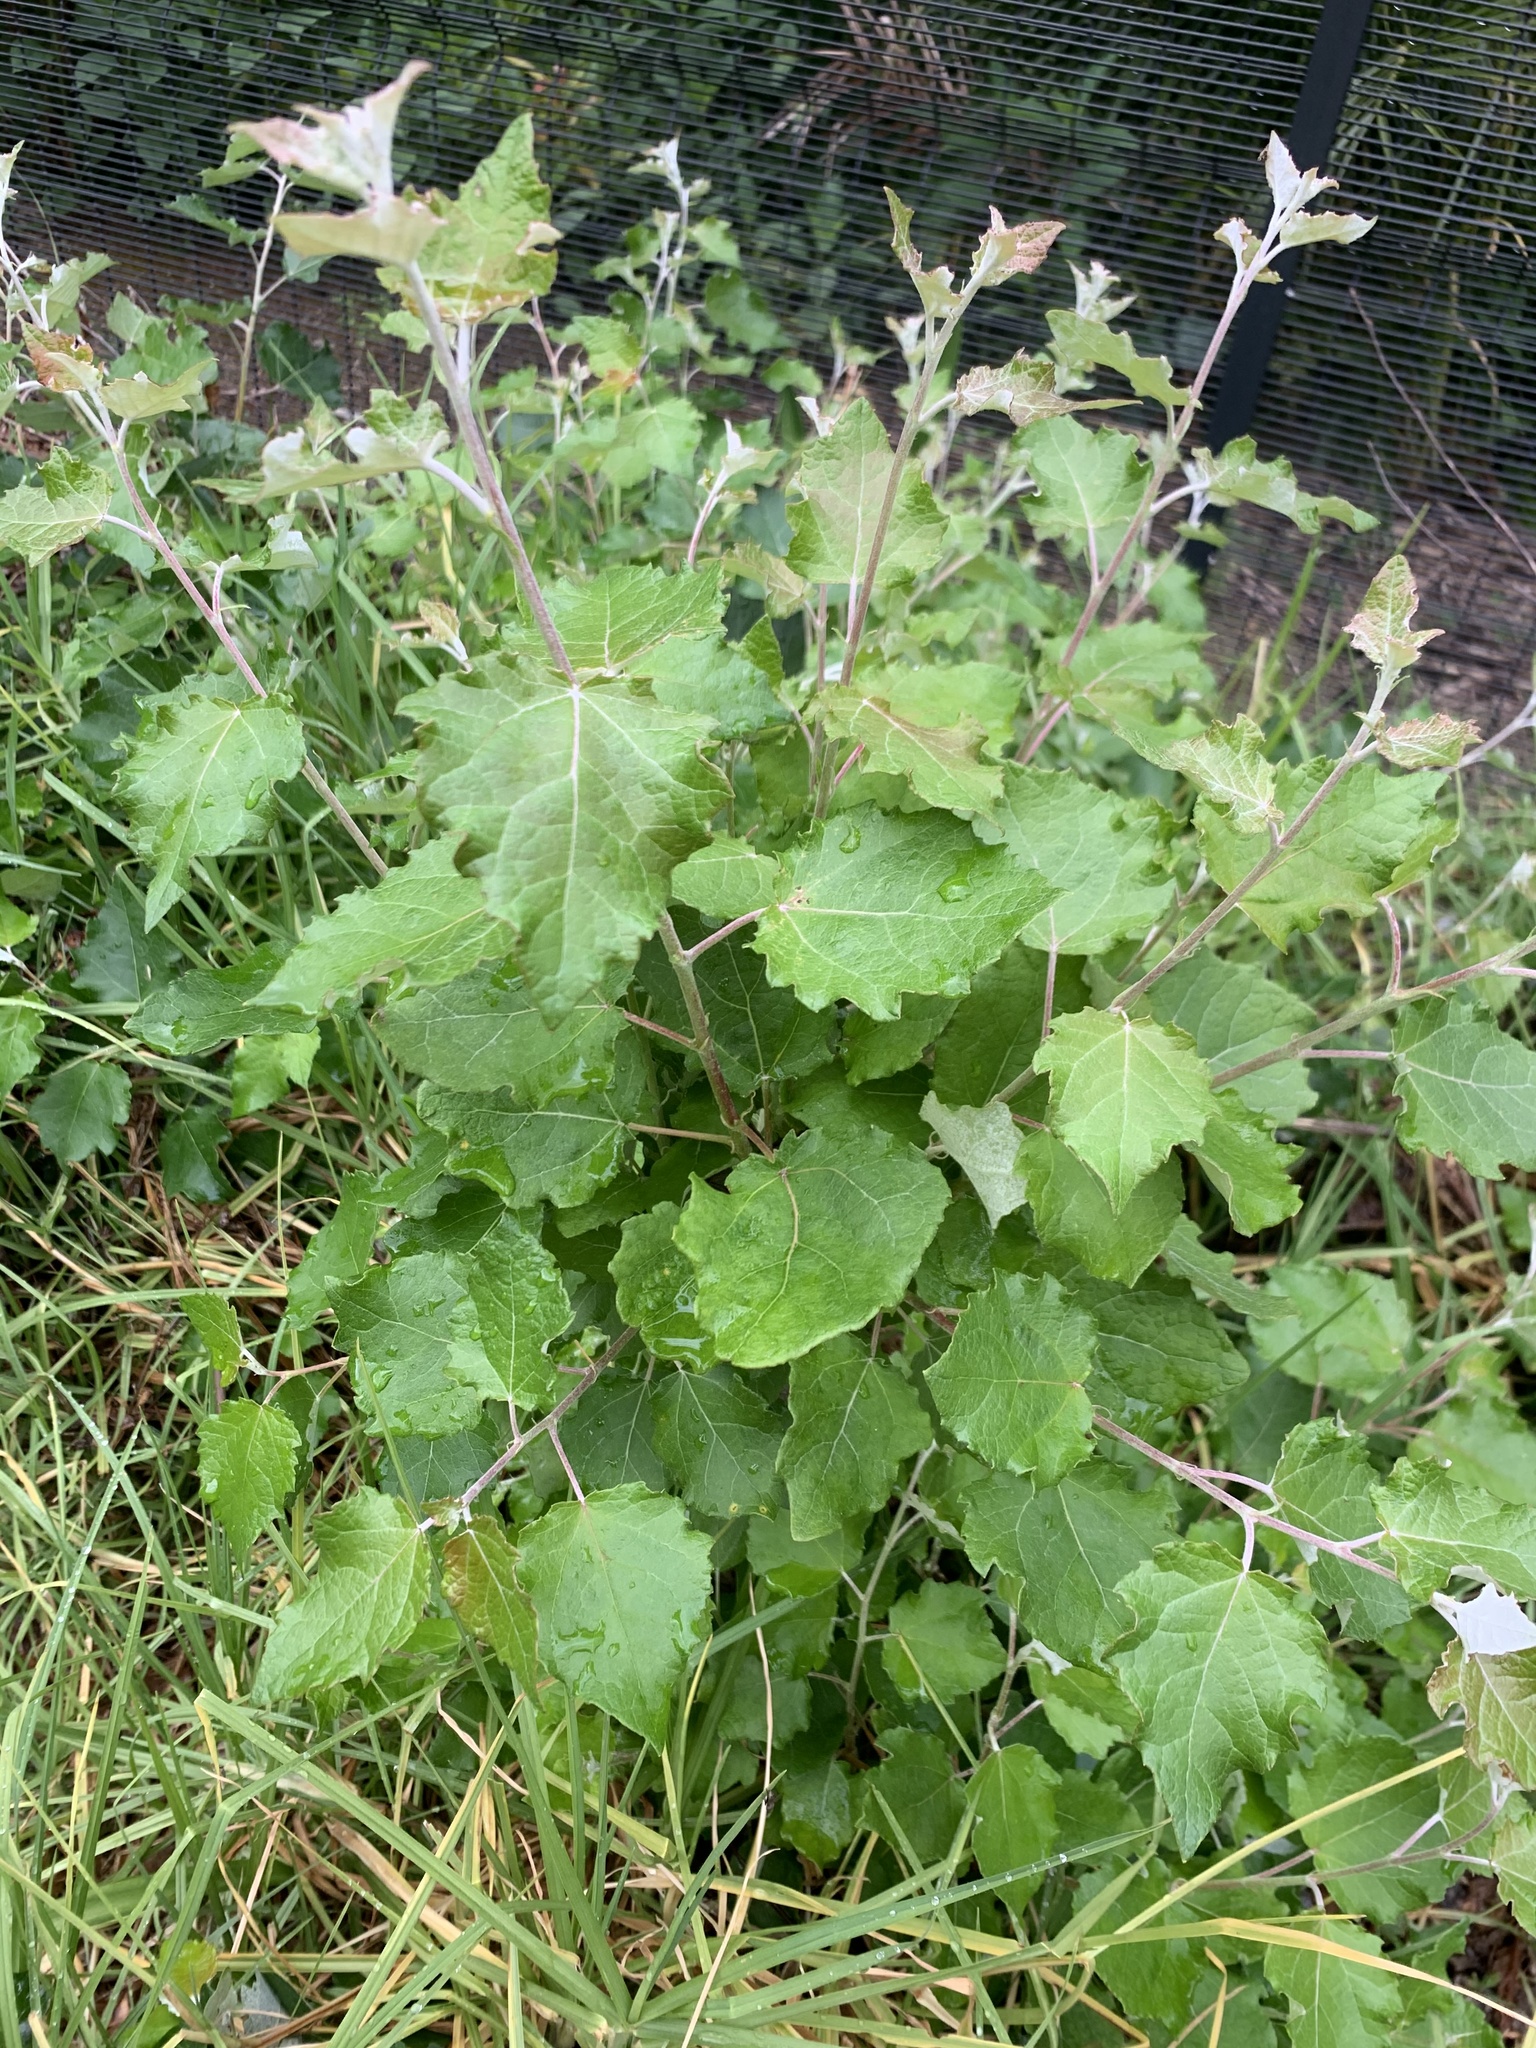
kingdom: Plantae
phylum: Tracheophyta
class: Magnoliopsida
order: Malpighiales
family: Salicaceae
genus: Populus
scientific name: Populus canescens
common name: Gray poplar
